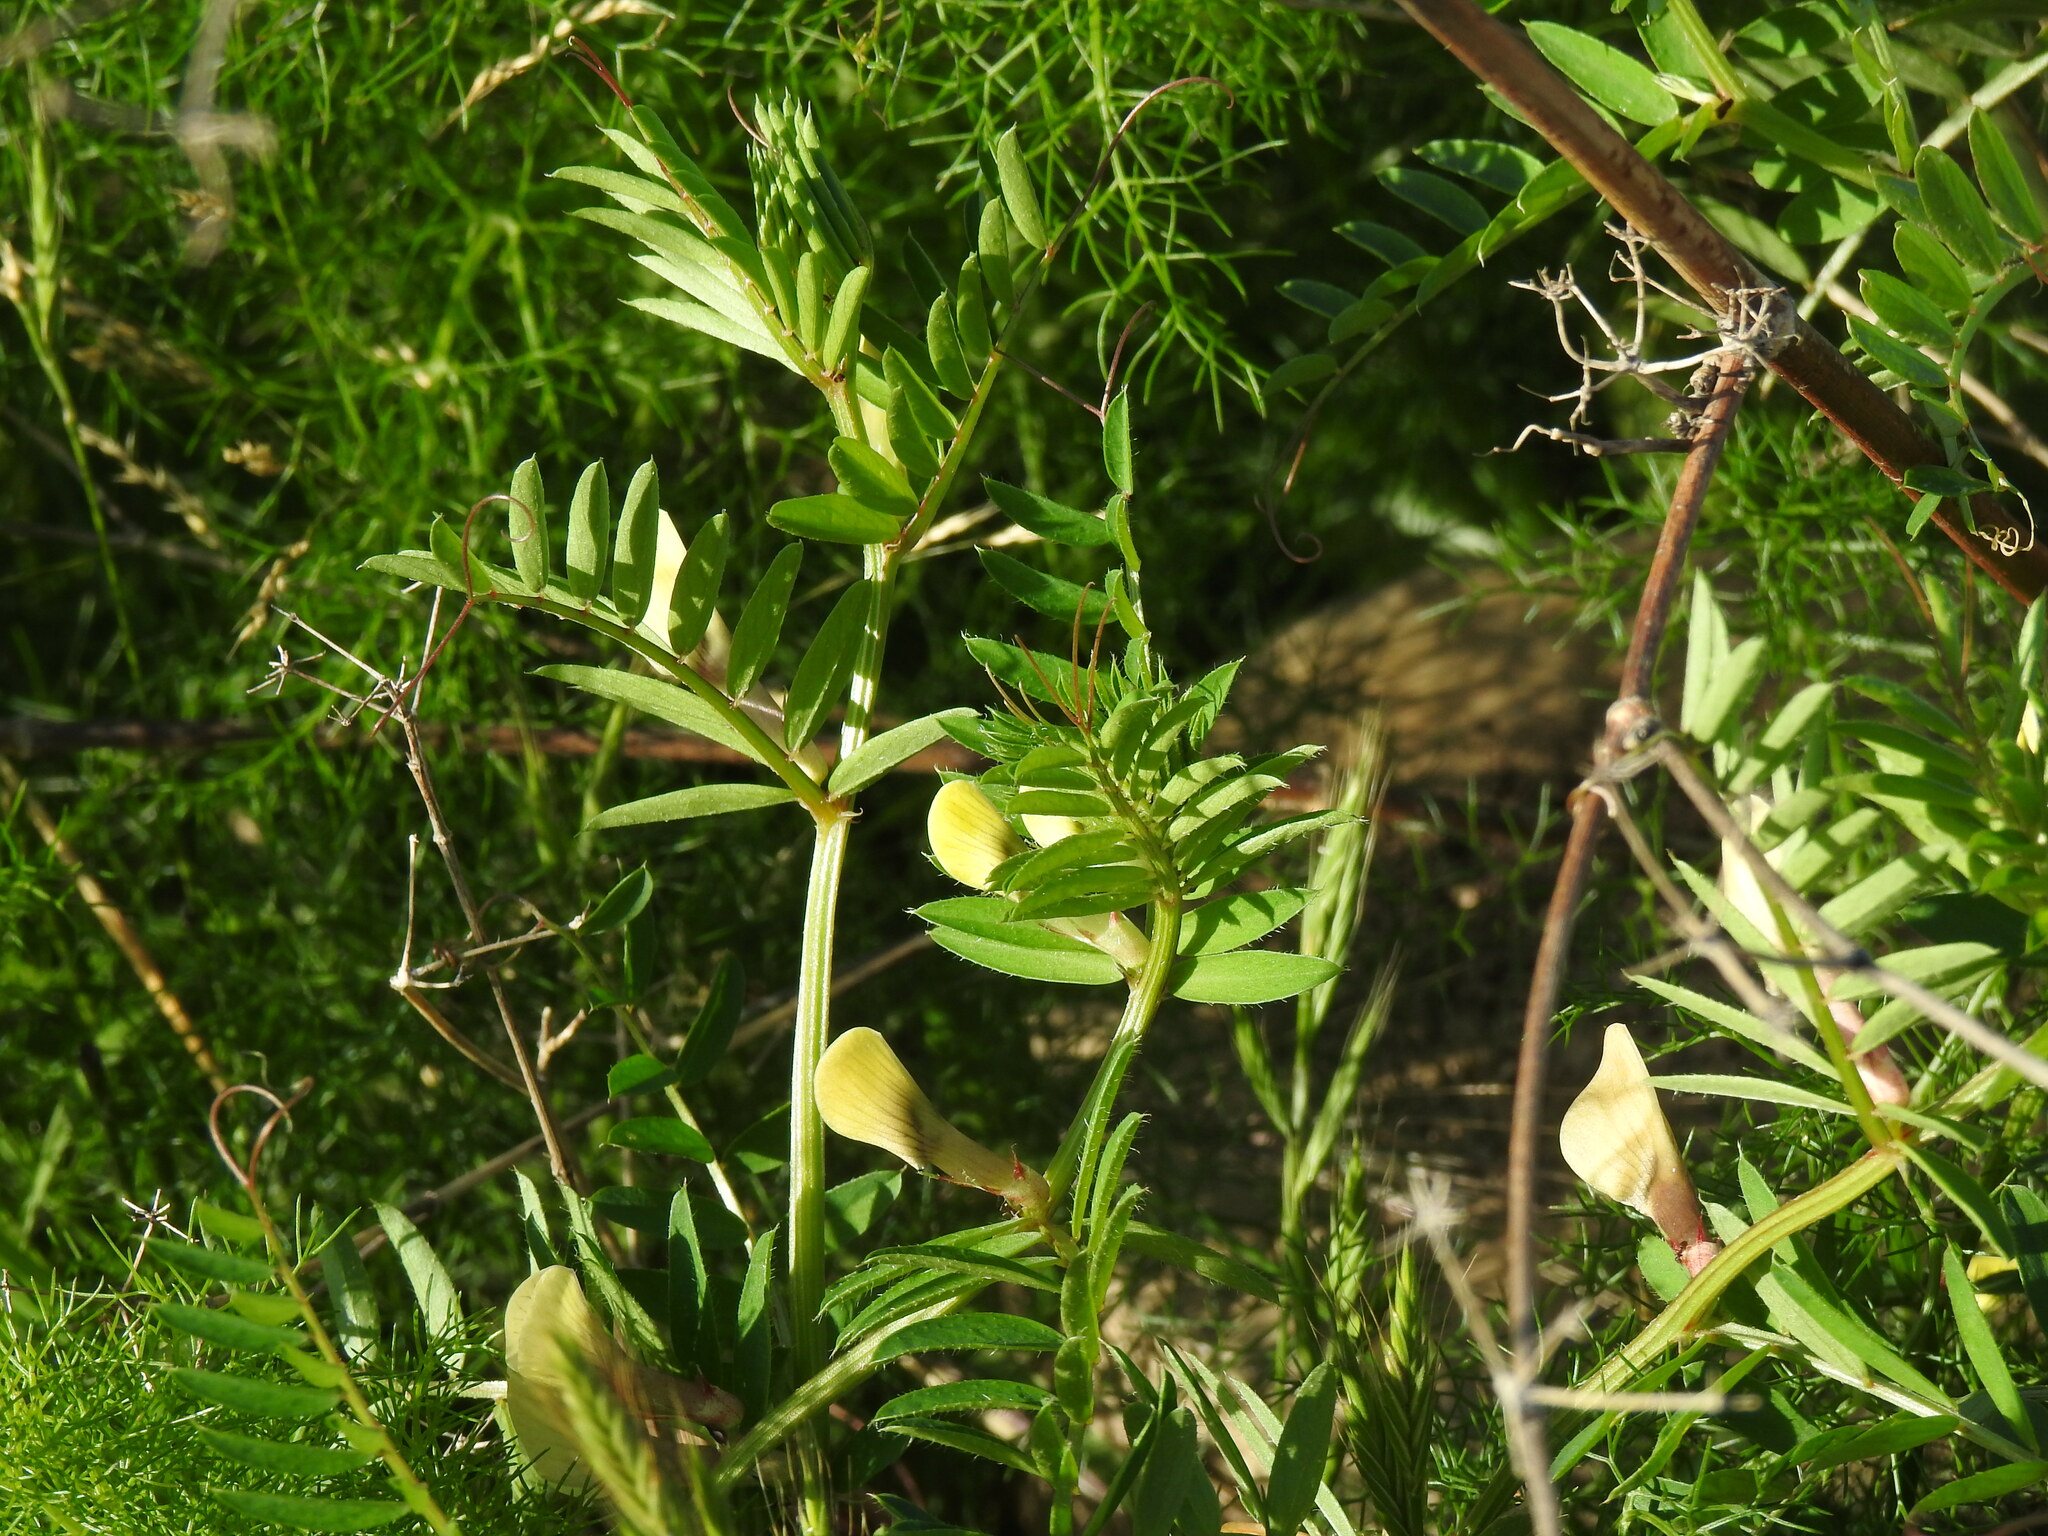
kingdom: Plantae
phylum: Tracheophyta
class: Magnoliopsida
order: Fabales
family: Fabaceae
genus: Vicia
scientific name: Vicia lutea
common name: Smooth yellow vetch
